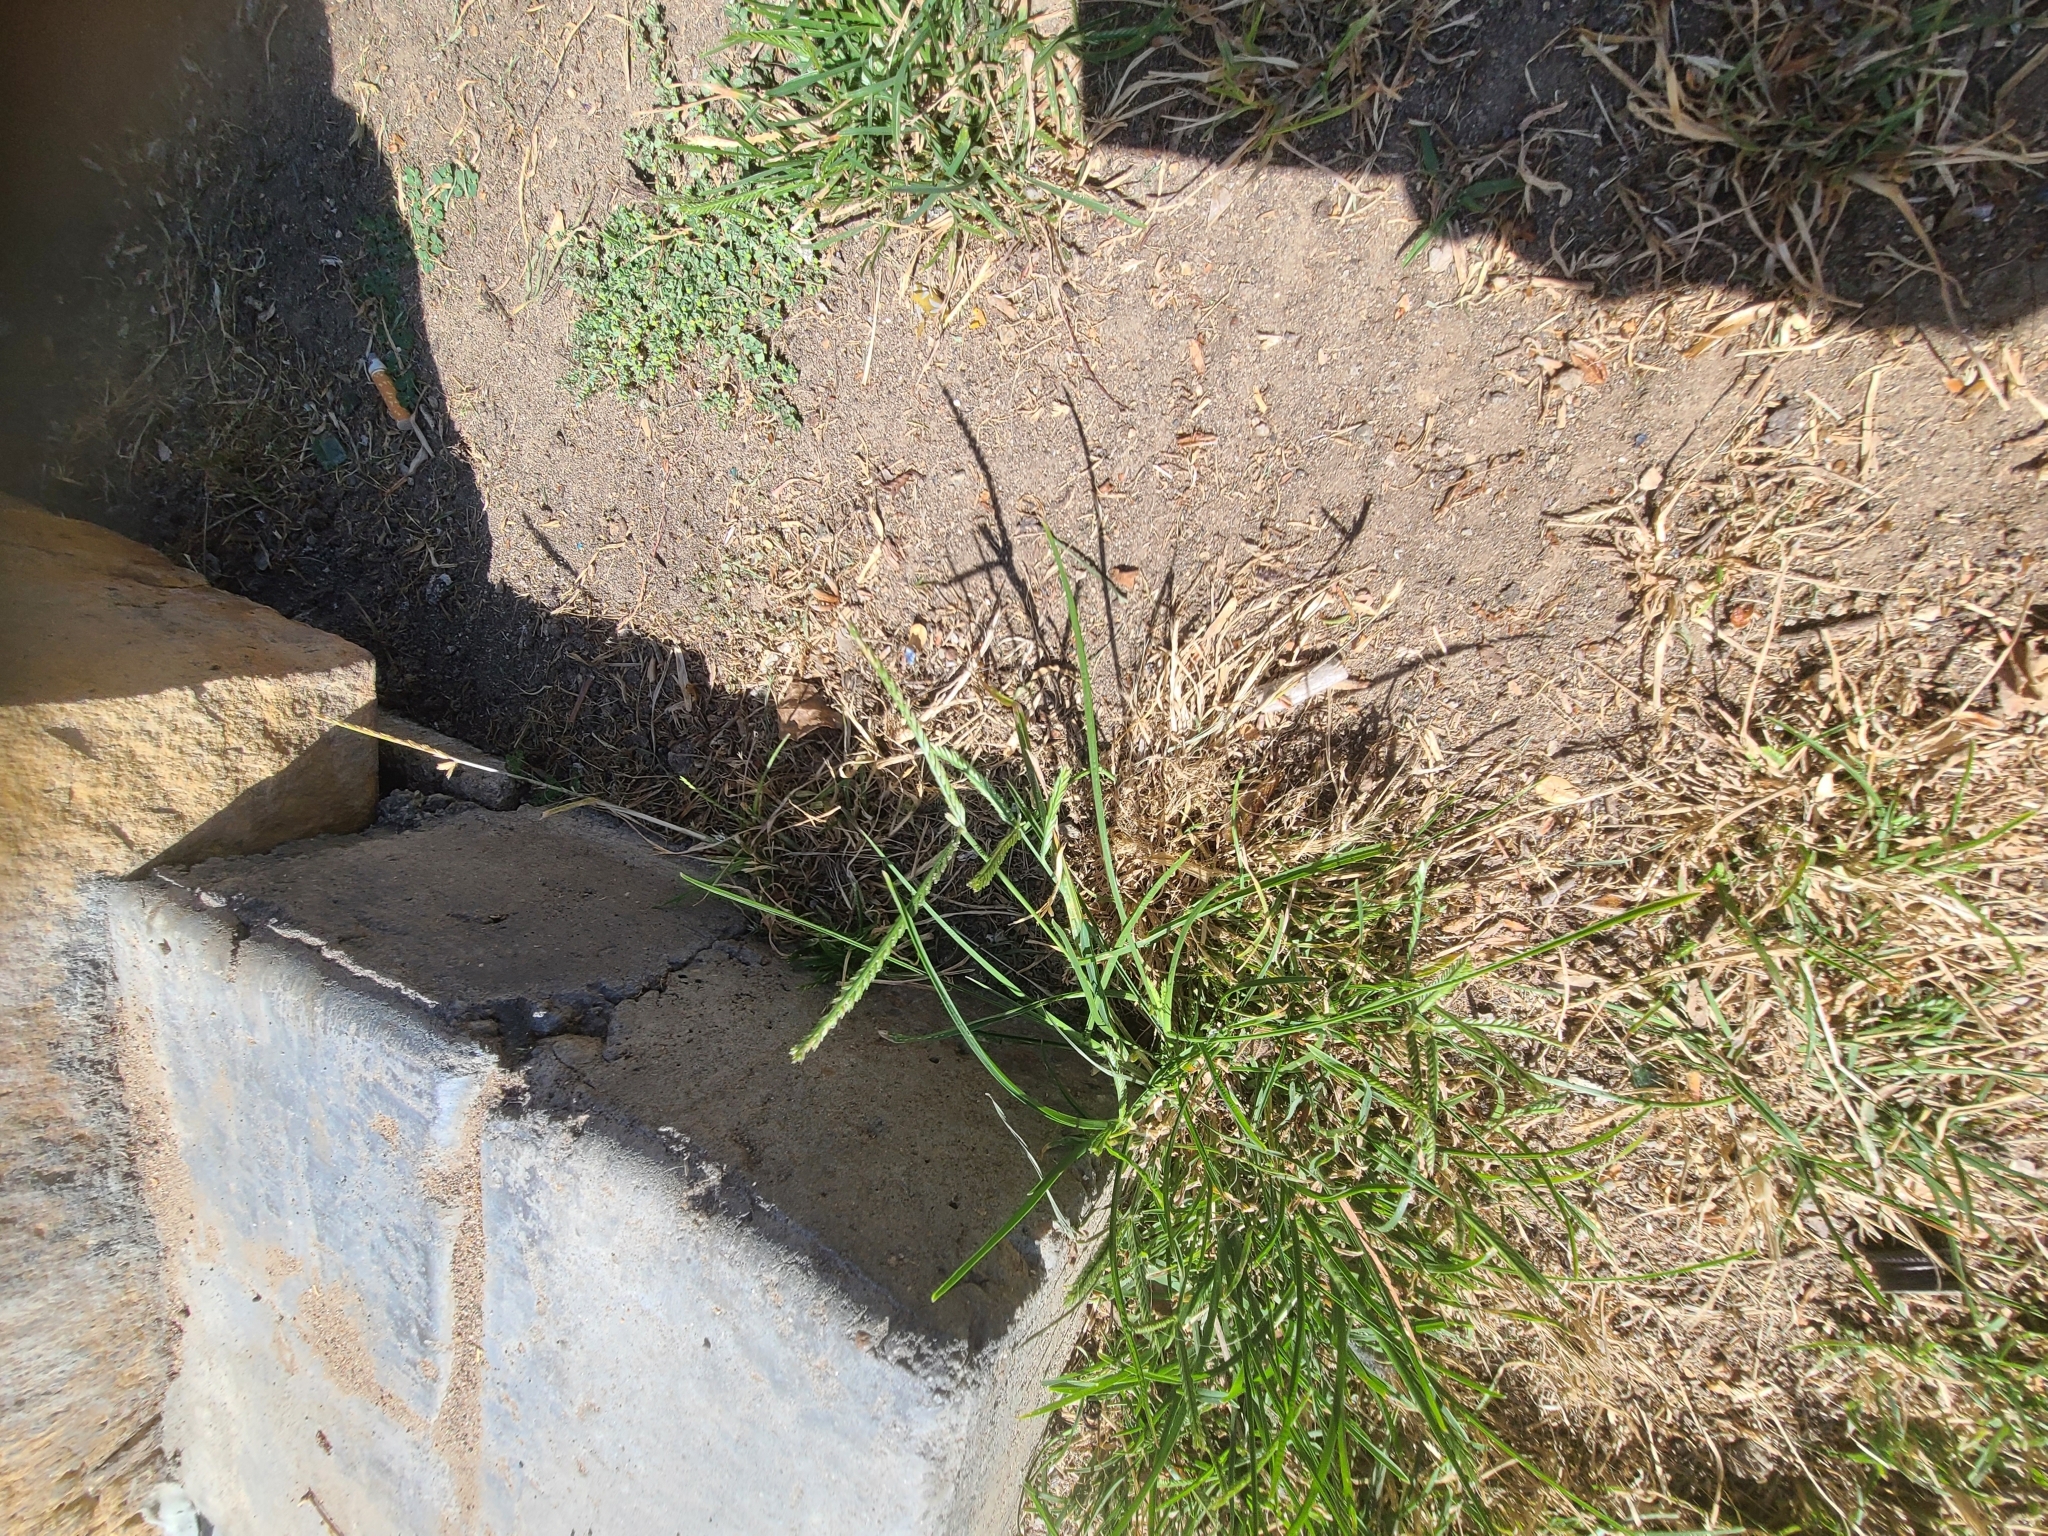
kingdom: Plantae
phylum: Tracheophyta
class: Liliopsida
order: Poales
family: Poaceae
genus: Eleusine
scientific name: Eleusine indica
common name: Yard-grass
